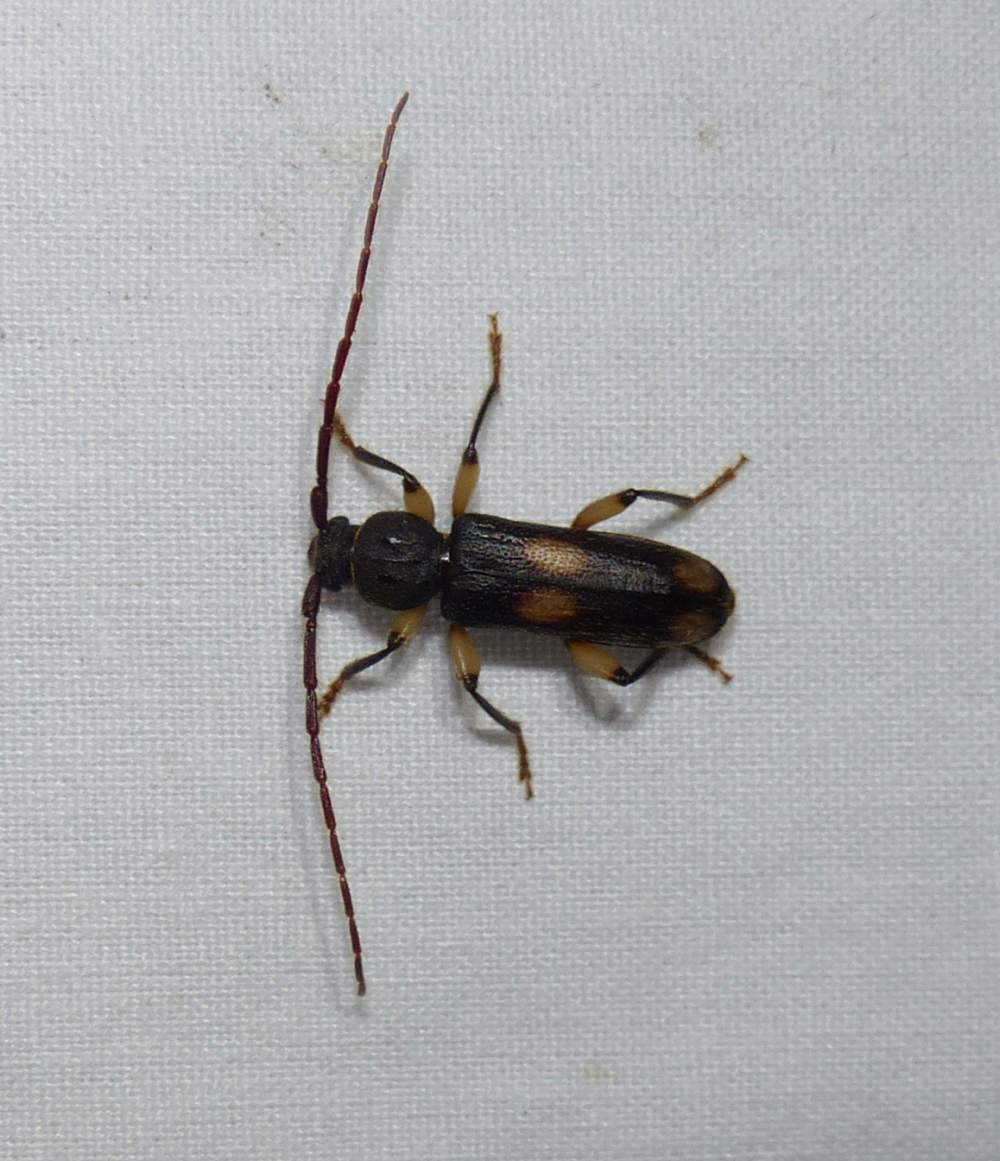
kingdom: Animalia
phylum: Arthropoda
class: Insecta
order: Coleoptera
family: Cerambycidae
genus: Tylonotus
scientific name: Tylonotus bimaculatus
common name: Ash and privet borer
